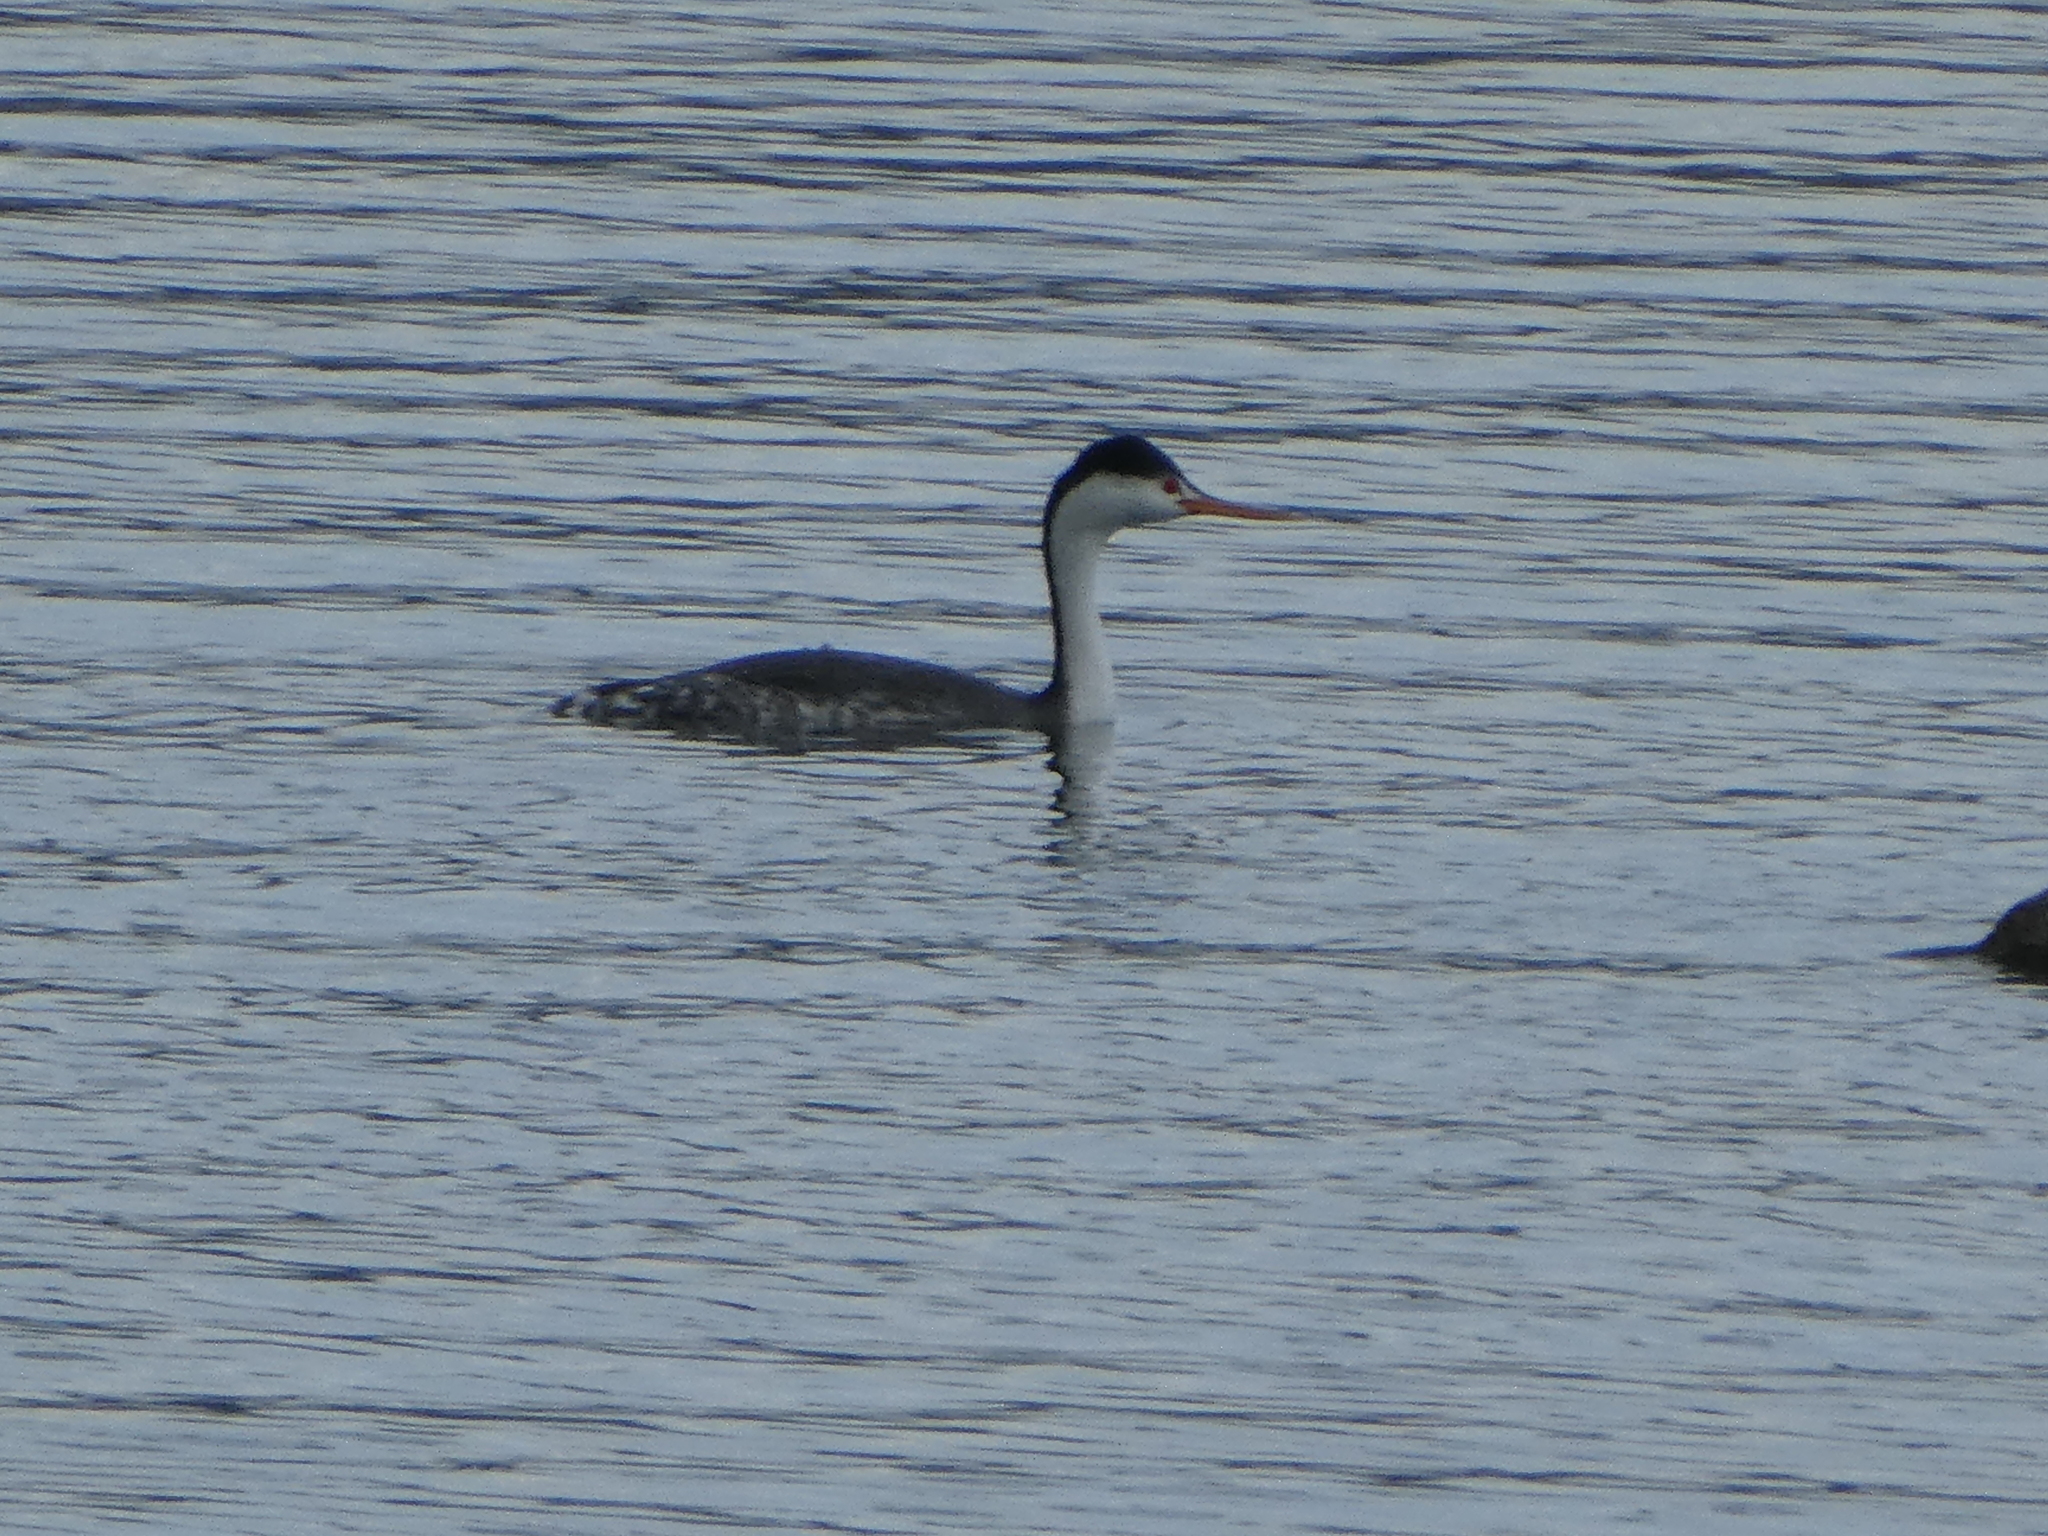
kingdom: Animalia
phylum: Chordata
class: Aves
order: Podicipediformes
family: Podicipedidae
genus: Aechmophorus
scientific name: Aechmophorus clarkii
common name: Clark's grebe
